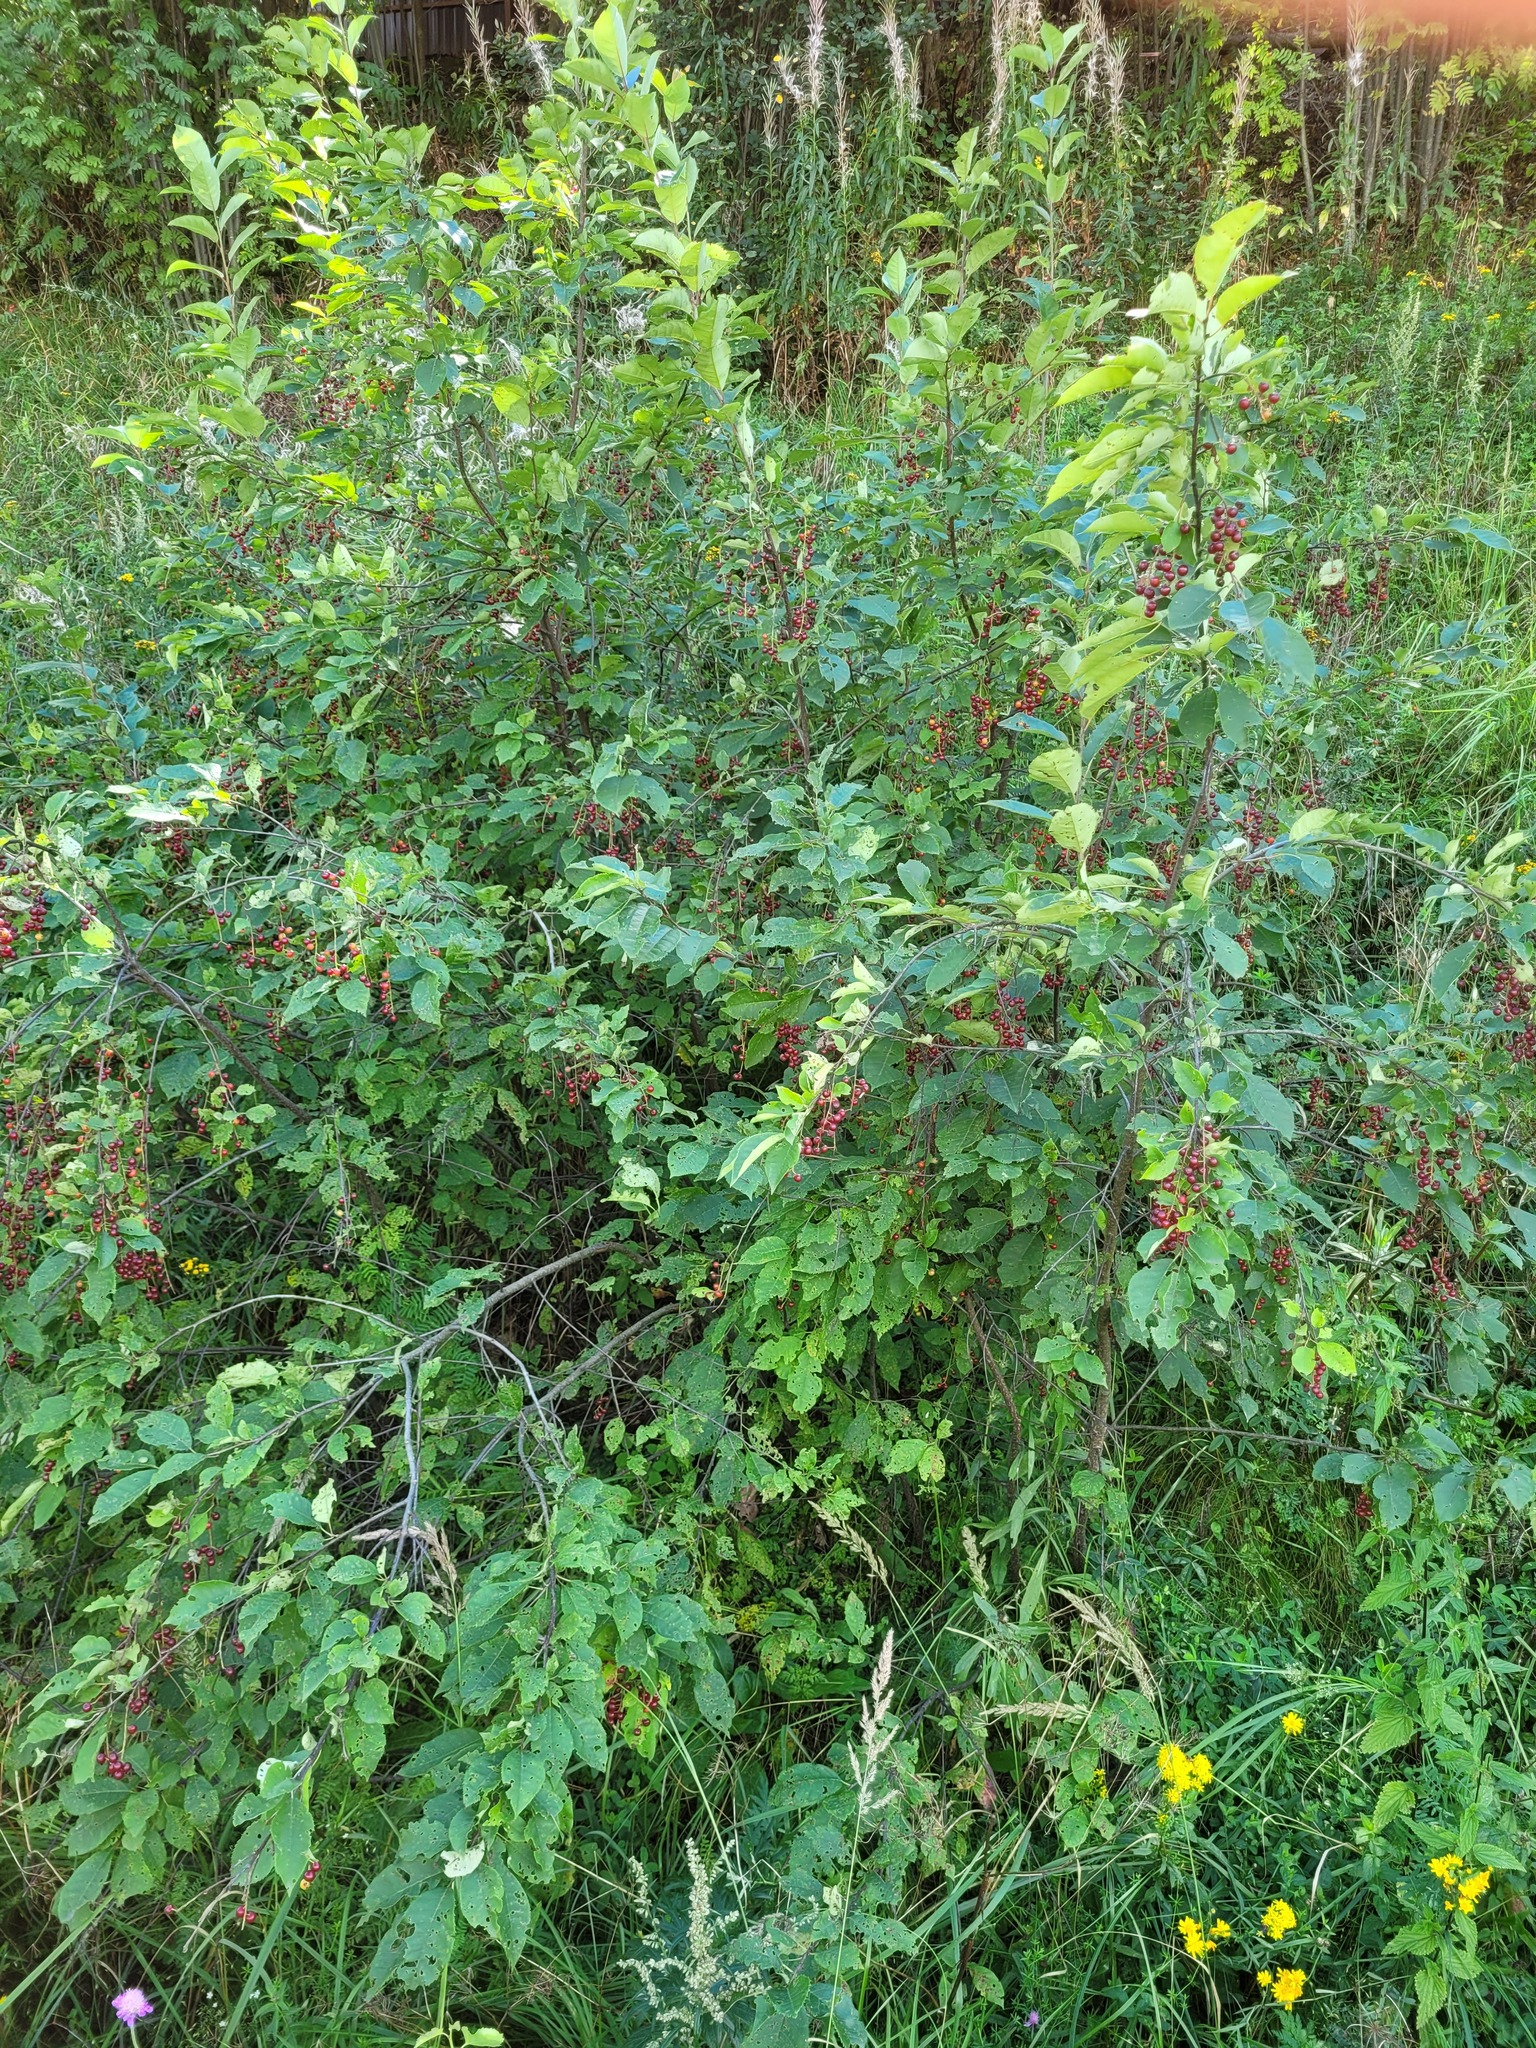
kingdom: Plantae
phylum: Tracheophyta
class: Magnoliopsida
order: Rosales
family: Rosaceae
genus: Prunus
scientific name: Prunus virginiana
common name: Chokecherry
